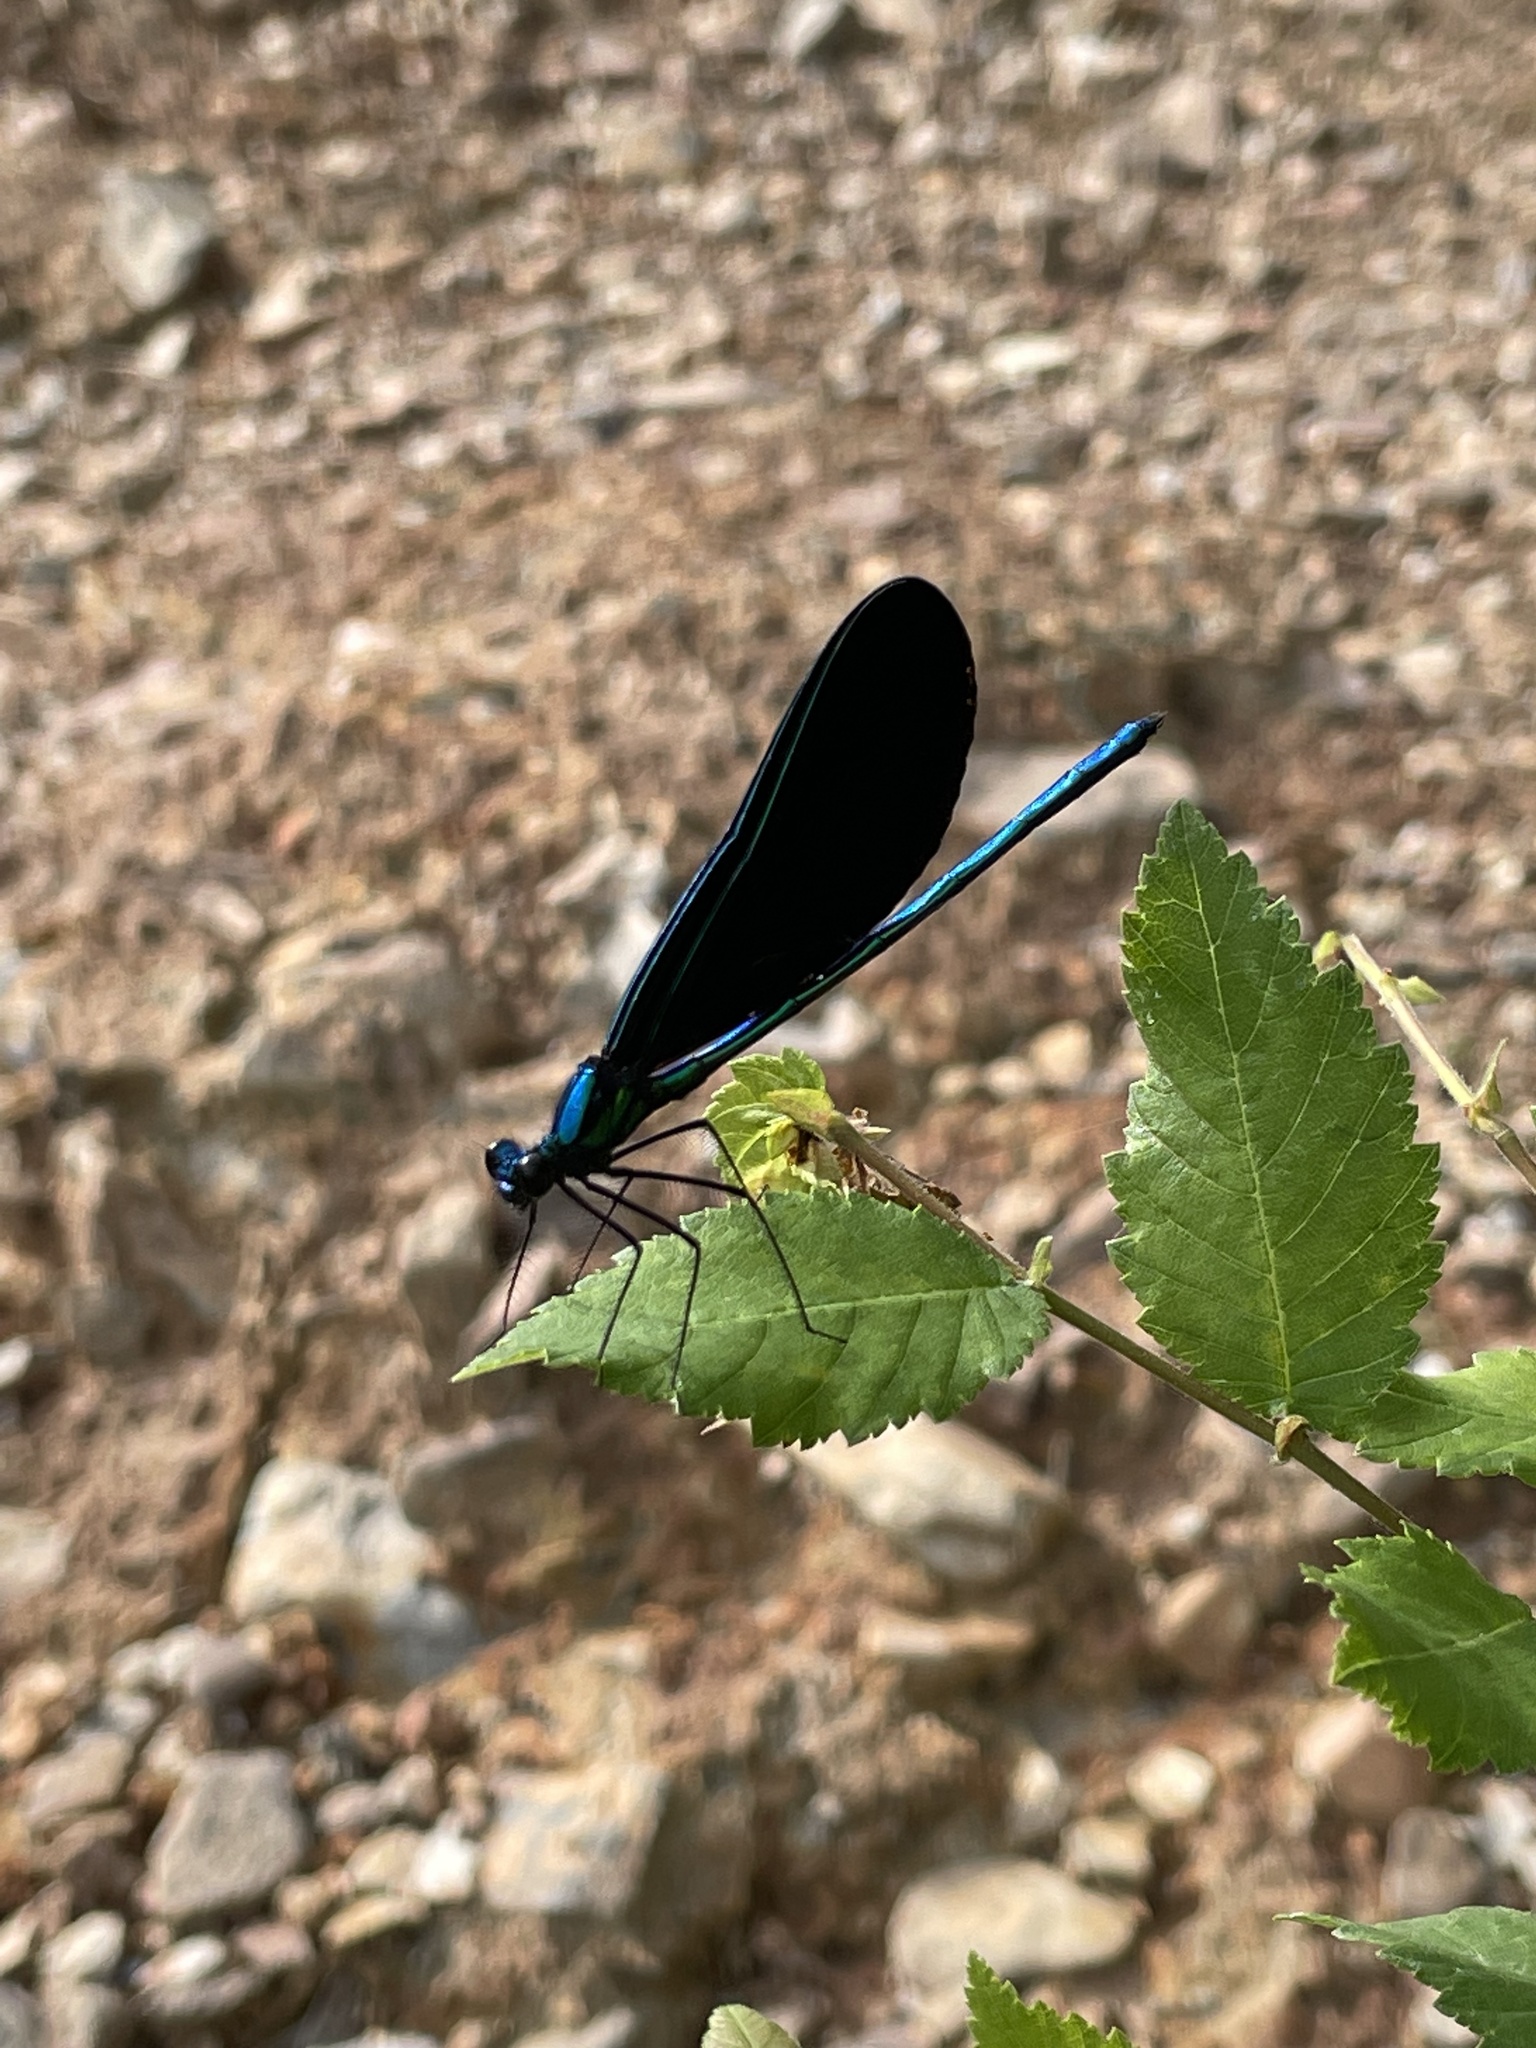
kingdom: Animalia
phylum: Arthropoda
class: Insecta
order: Odonata
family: Calopterygidae
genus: Calopteryx
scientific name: Calopteryx maculata
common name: Ebony jewelwing
